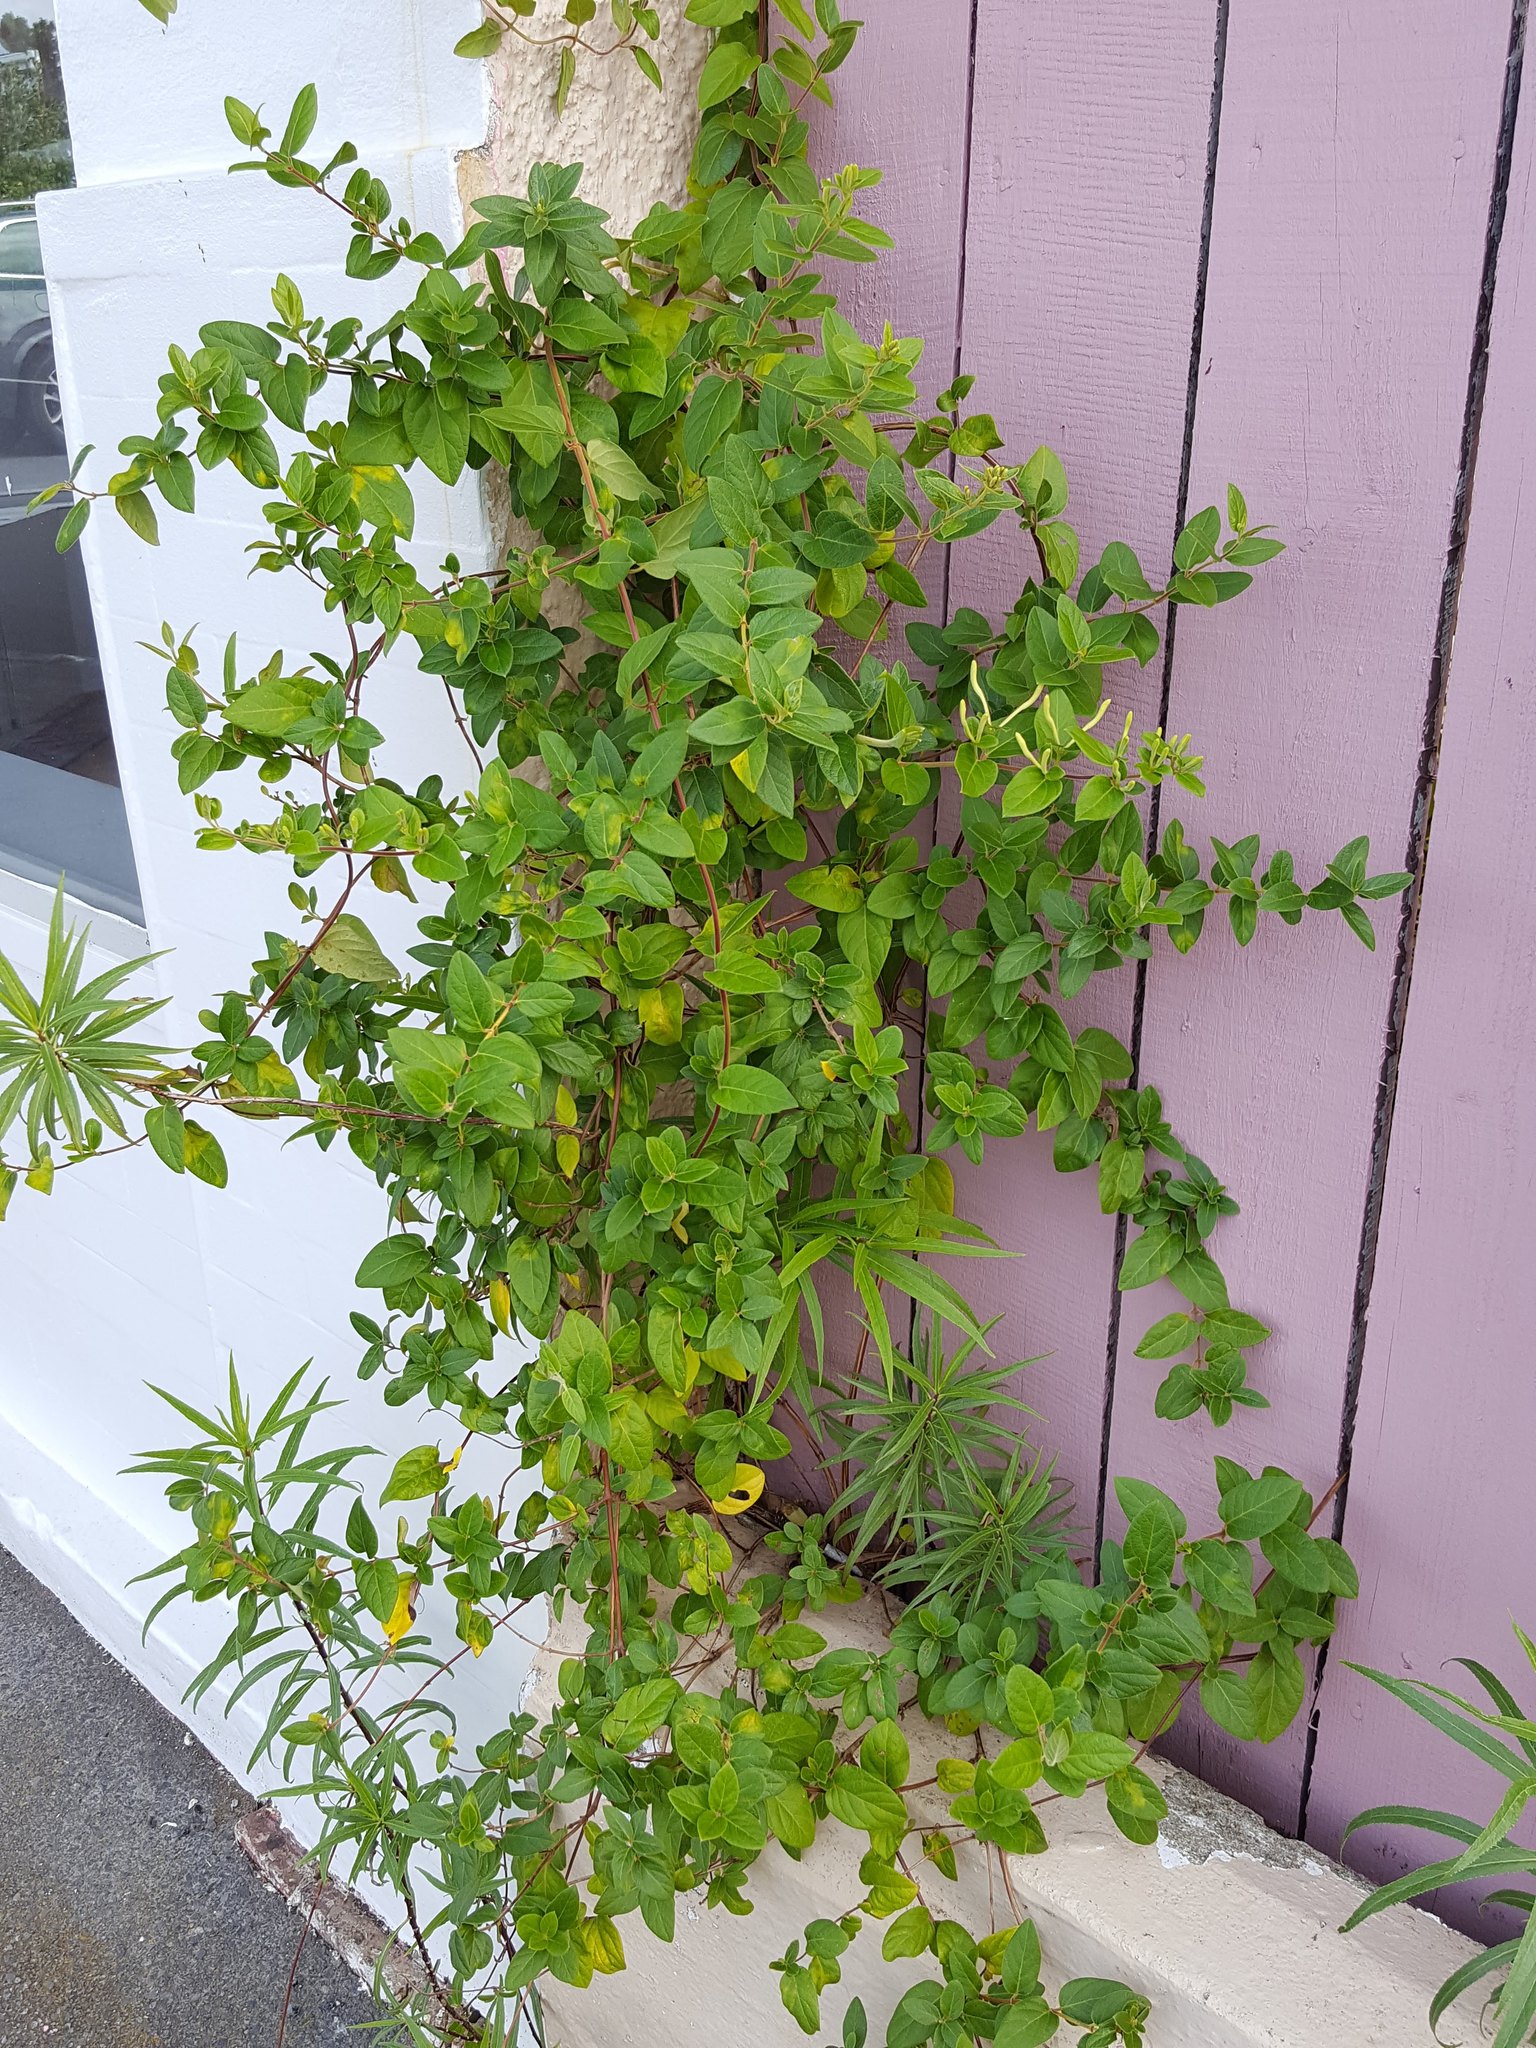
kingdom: Plantae
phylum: Tracheophyta
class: Magnoliopsida
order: Dipsacales
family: Caprifoliaceae
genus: Lonicera
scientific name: Lonicera japonica
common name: Japanese honeysuckle
